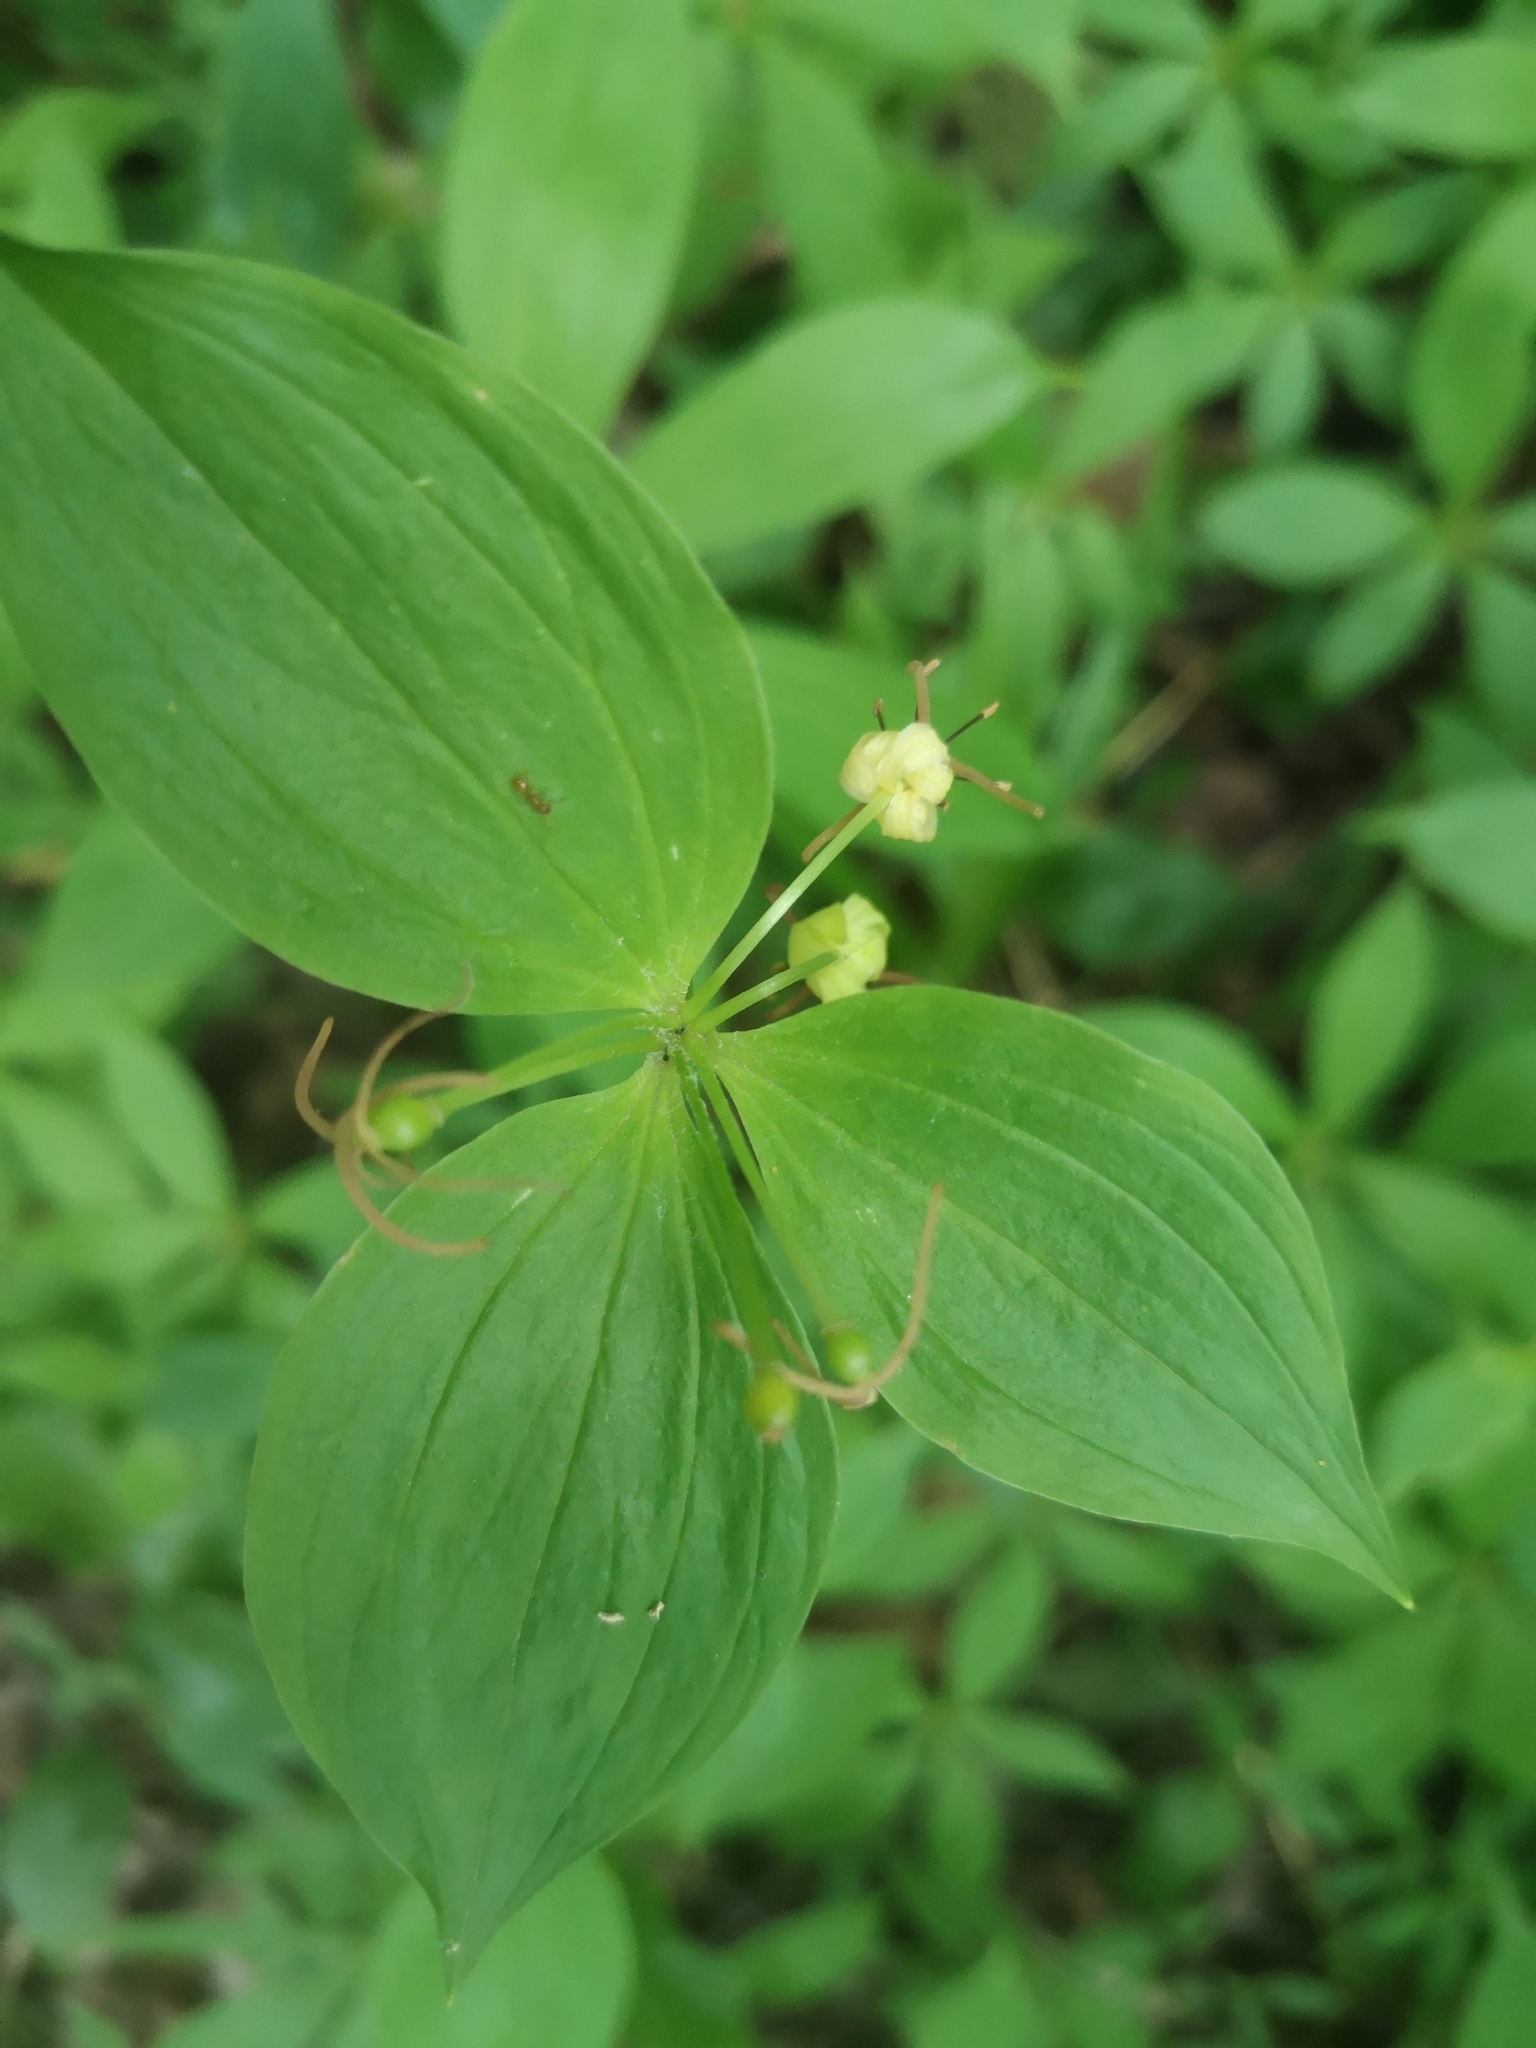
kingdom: Plantae
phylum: Tracheophyta
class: Liliopsida
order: Liliales
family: Liliaceae
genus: Medeola
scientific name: Medeola virginiana
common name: Indian cucumber-root
